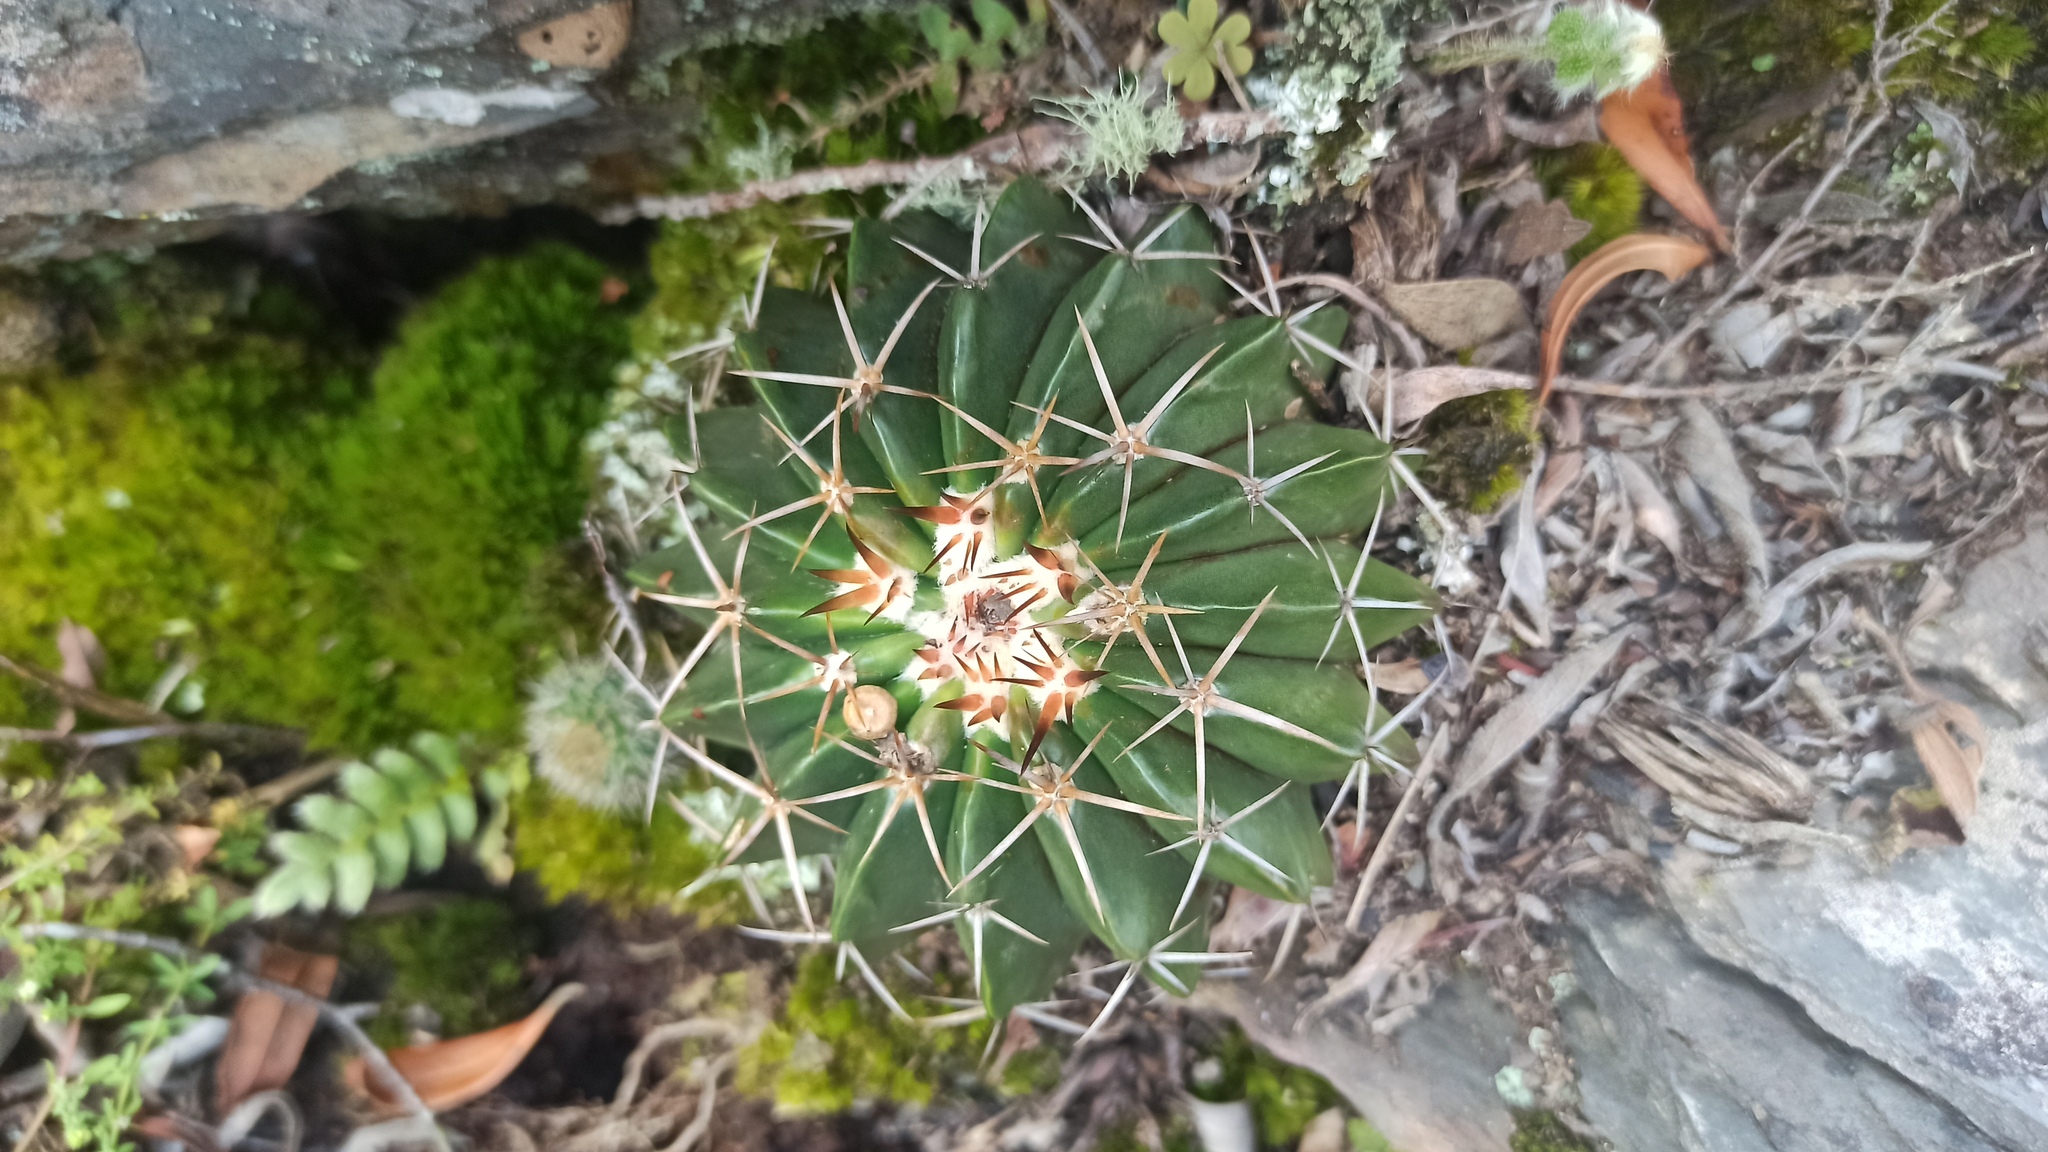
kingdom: Plantae
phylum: Tracheophyta
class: Magnoliopsida
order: Caryophyllales
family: Cactaceae
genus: Parodia
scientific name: Parodia erinacea
